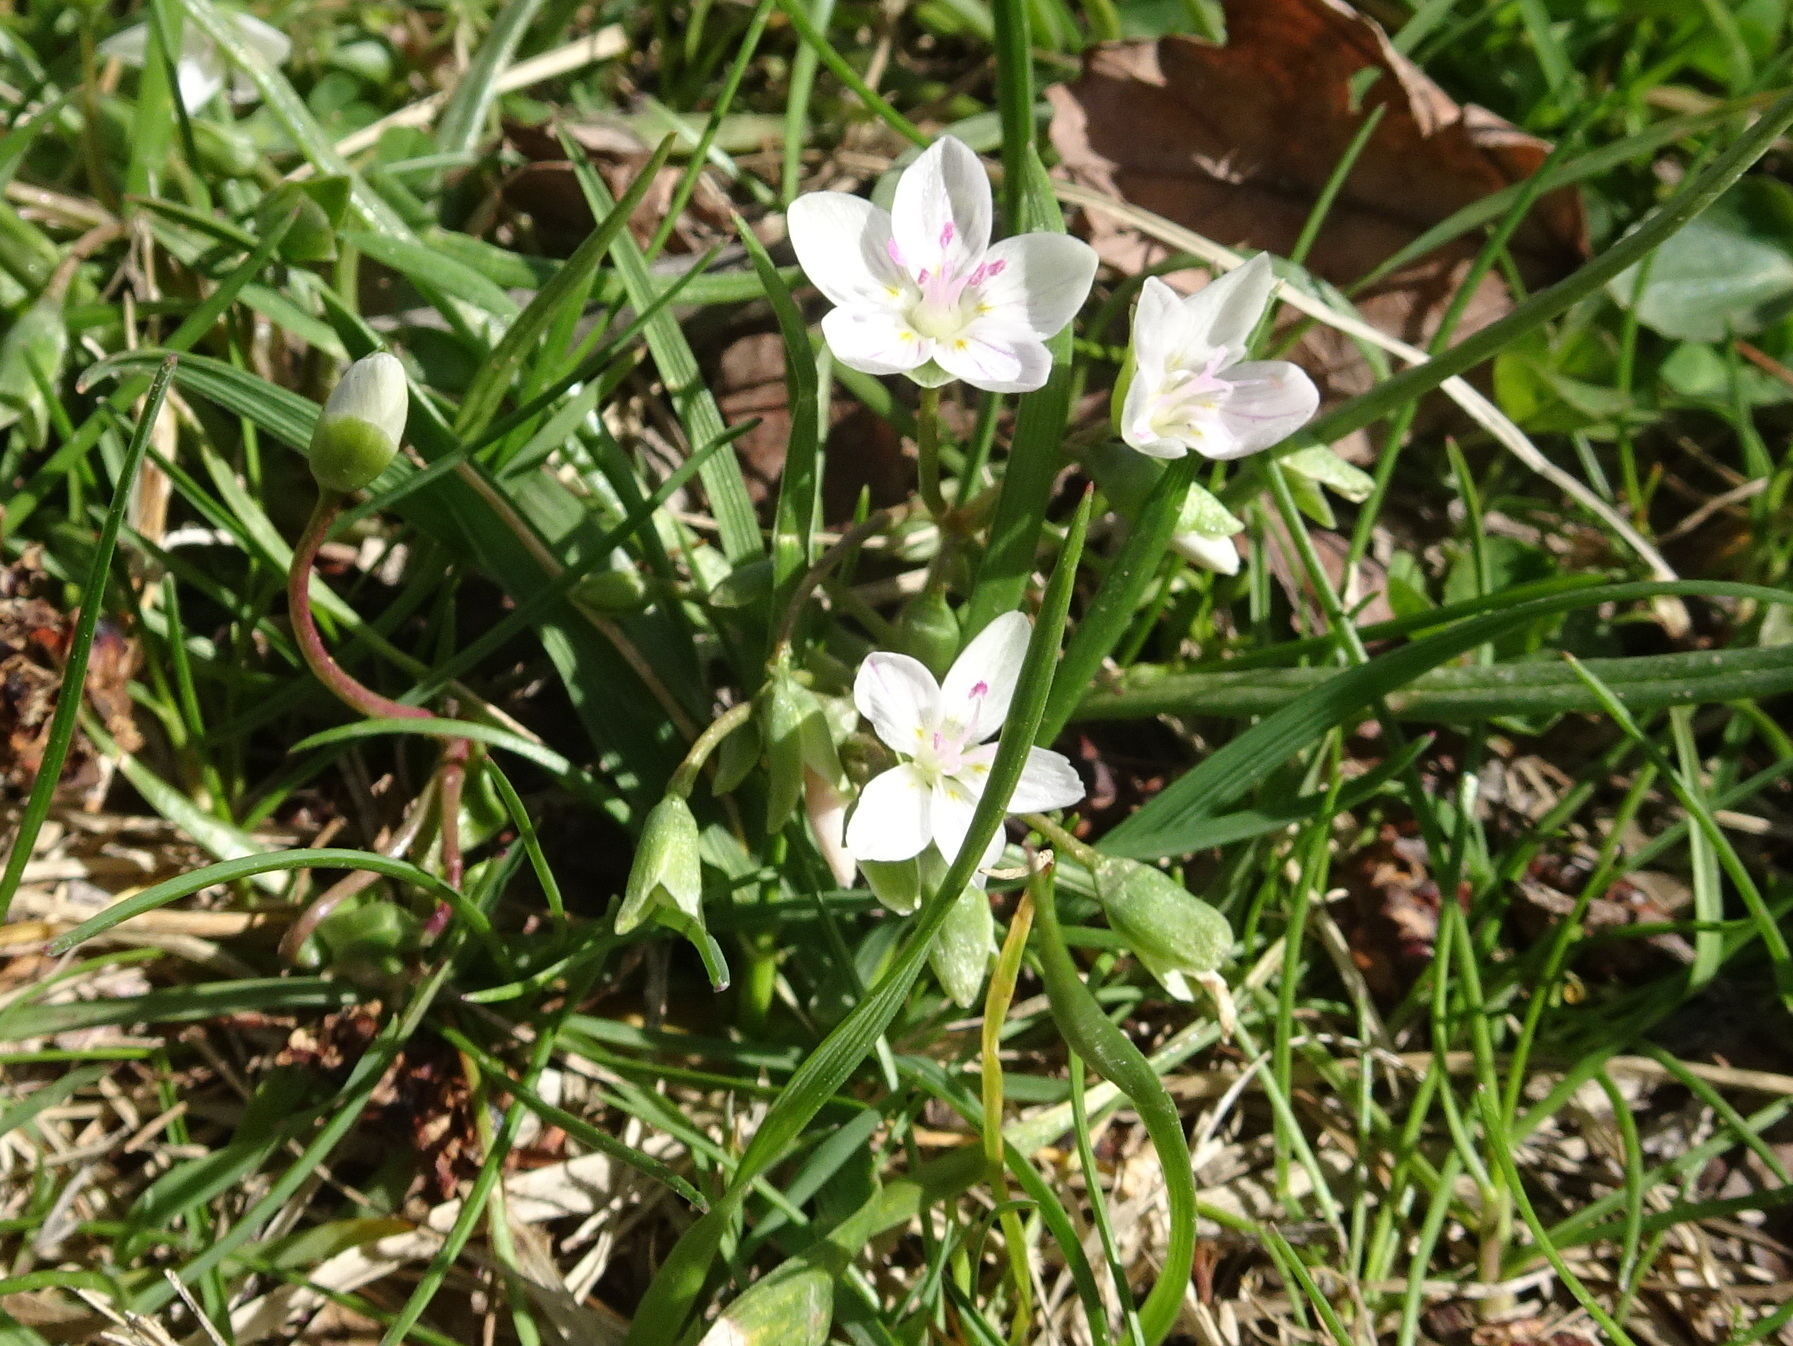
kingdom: Plantae
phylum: Tracheophyta
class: Magnoliopsida
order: Caryophyllales
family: Montiaceae
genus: Claytonia
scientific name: Claytonia virginica
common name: Virginia springbeauty
